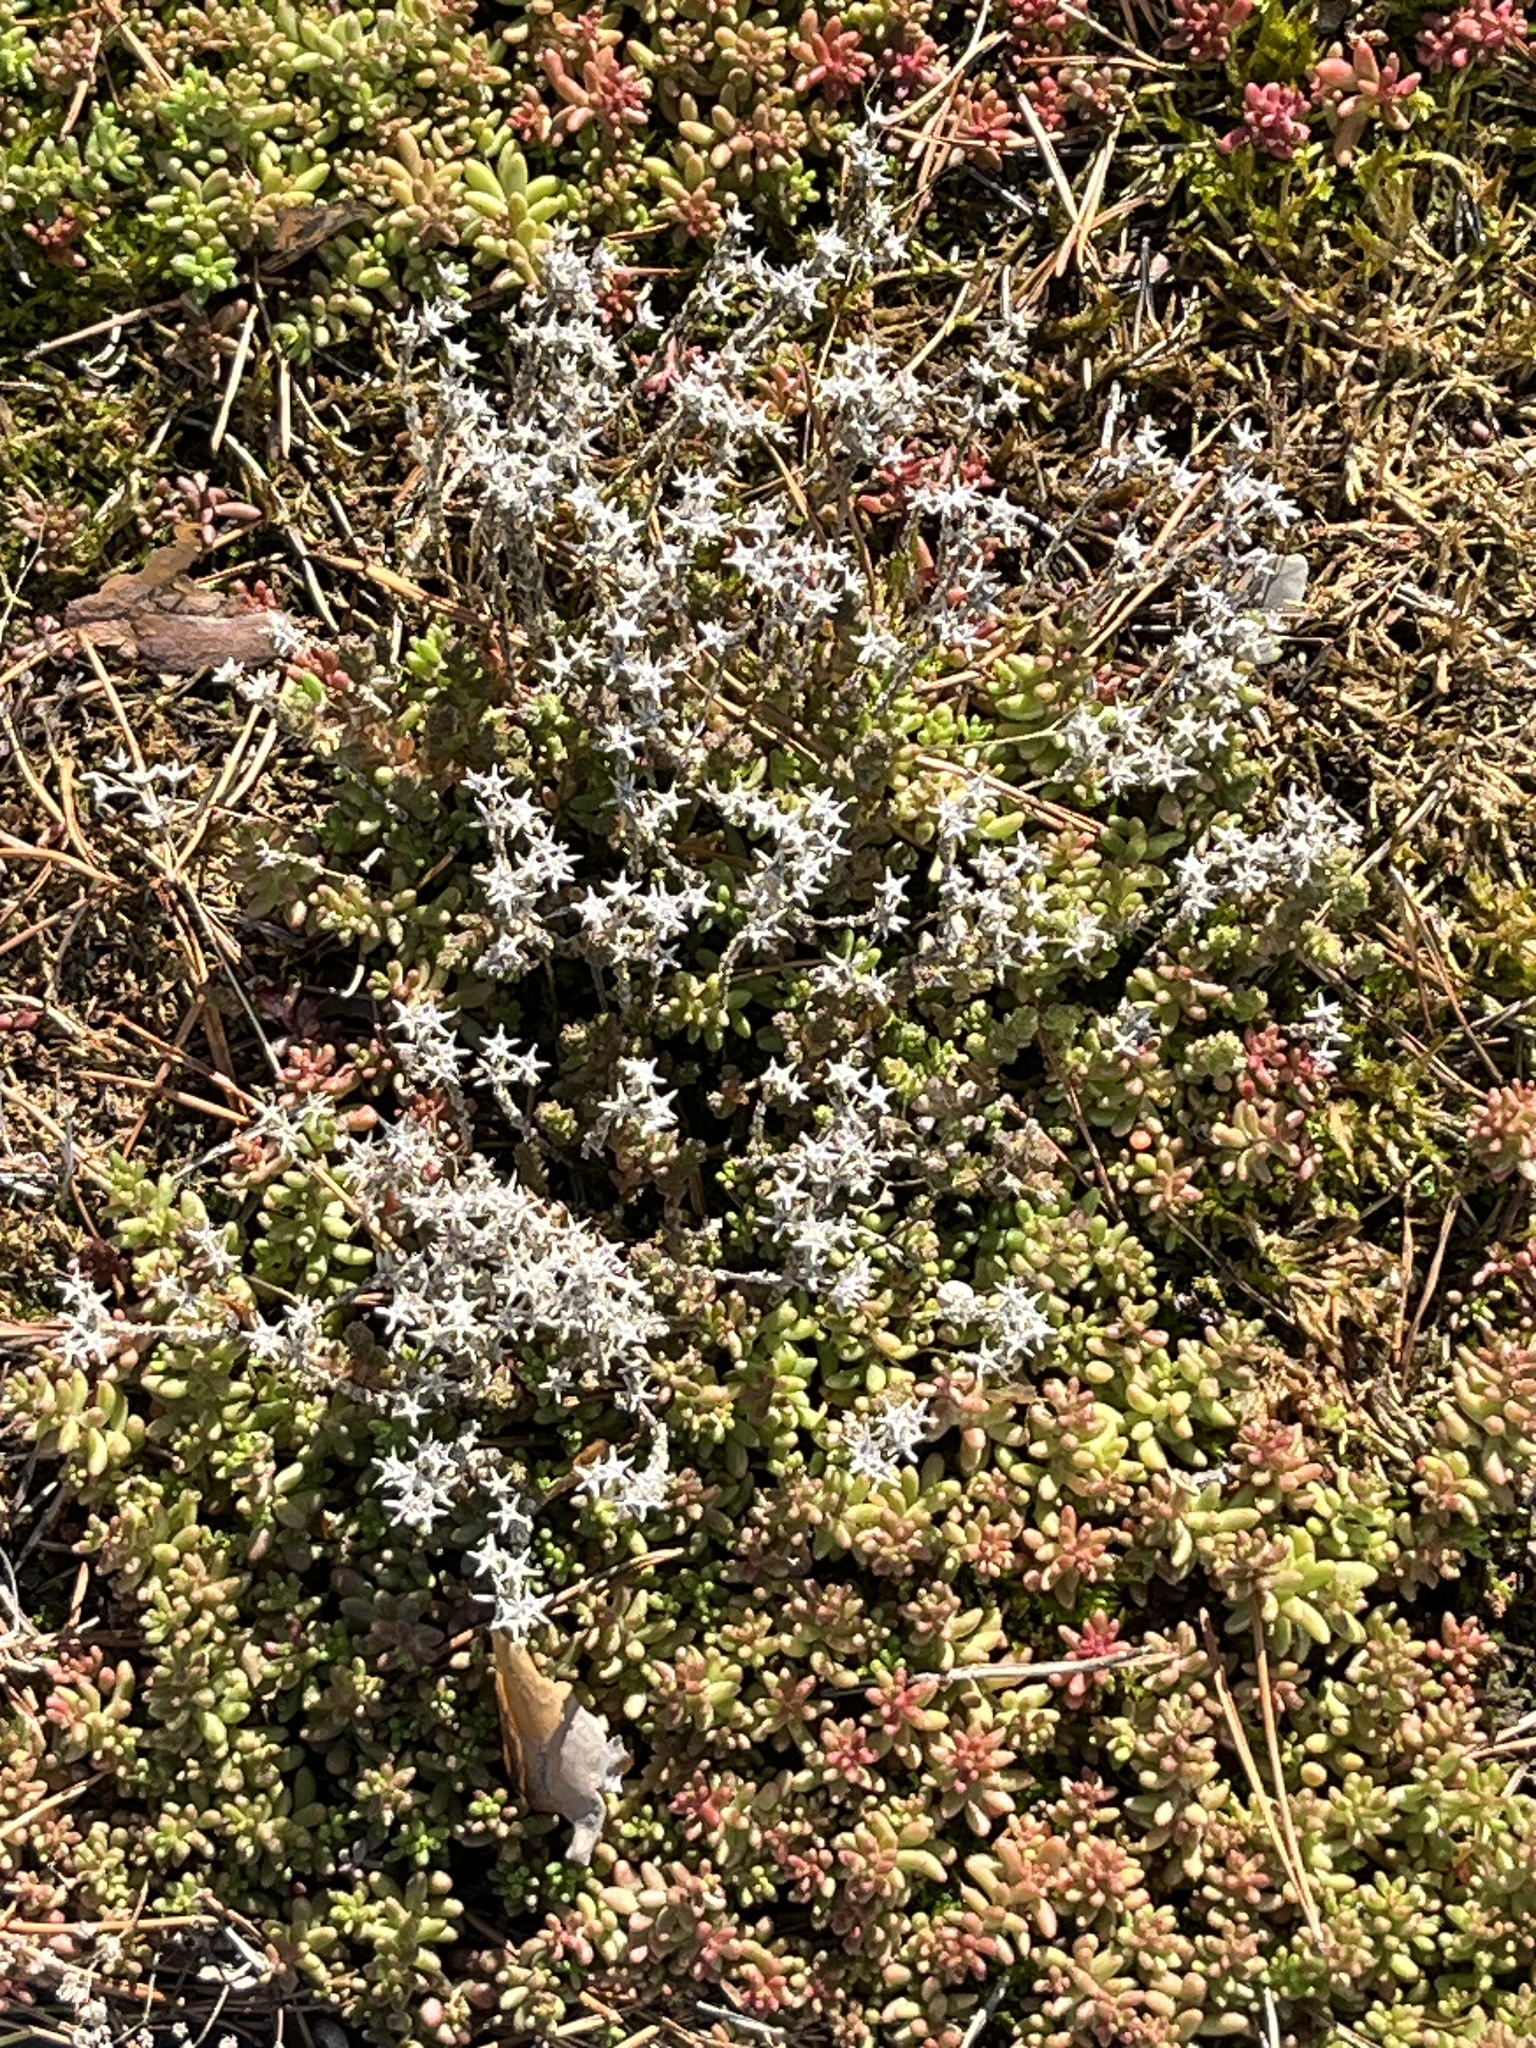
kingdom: Plantae
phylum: Tracheophyta
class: Magnoliopsida
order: Saxifragales
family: Crassulaceae
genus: Sedum
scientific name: Sedum album
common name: White stonecrop
